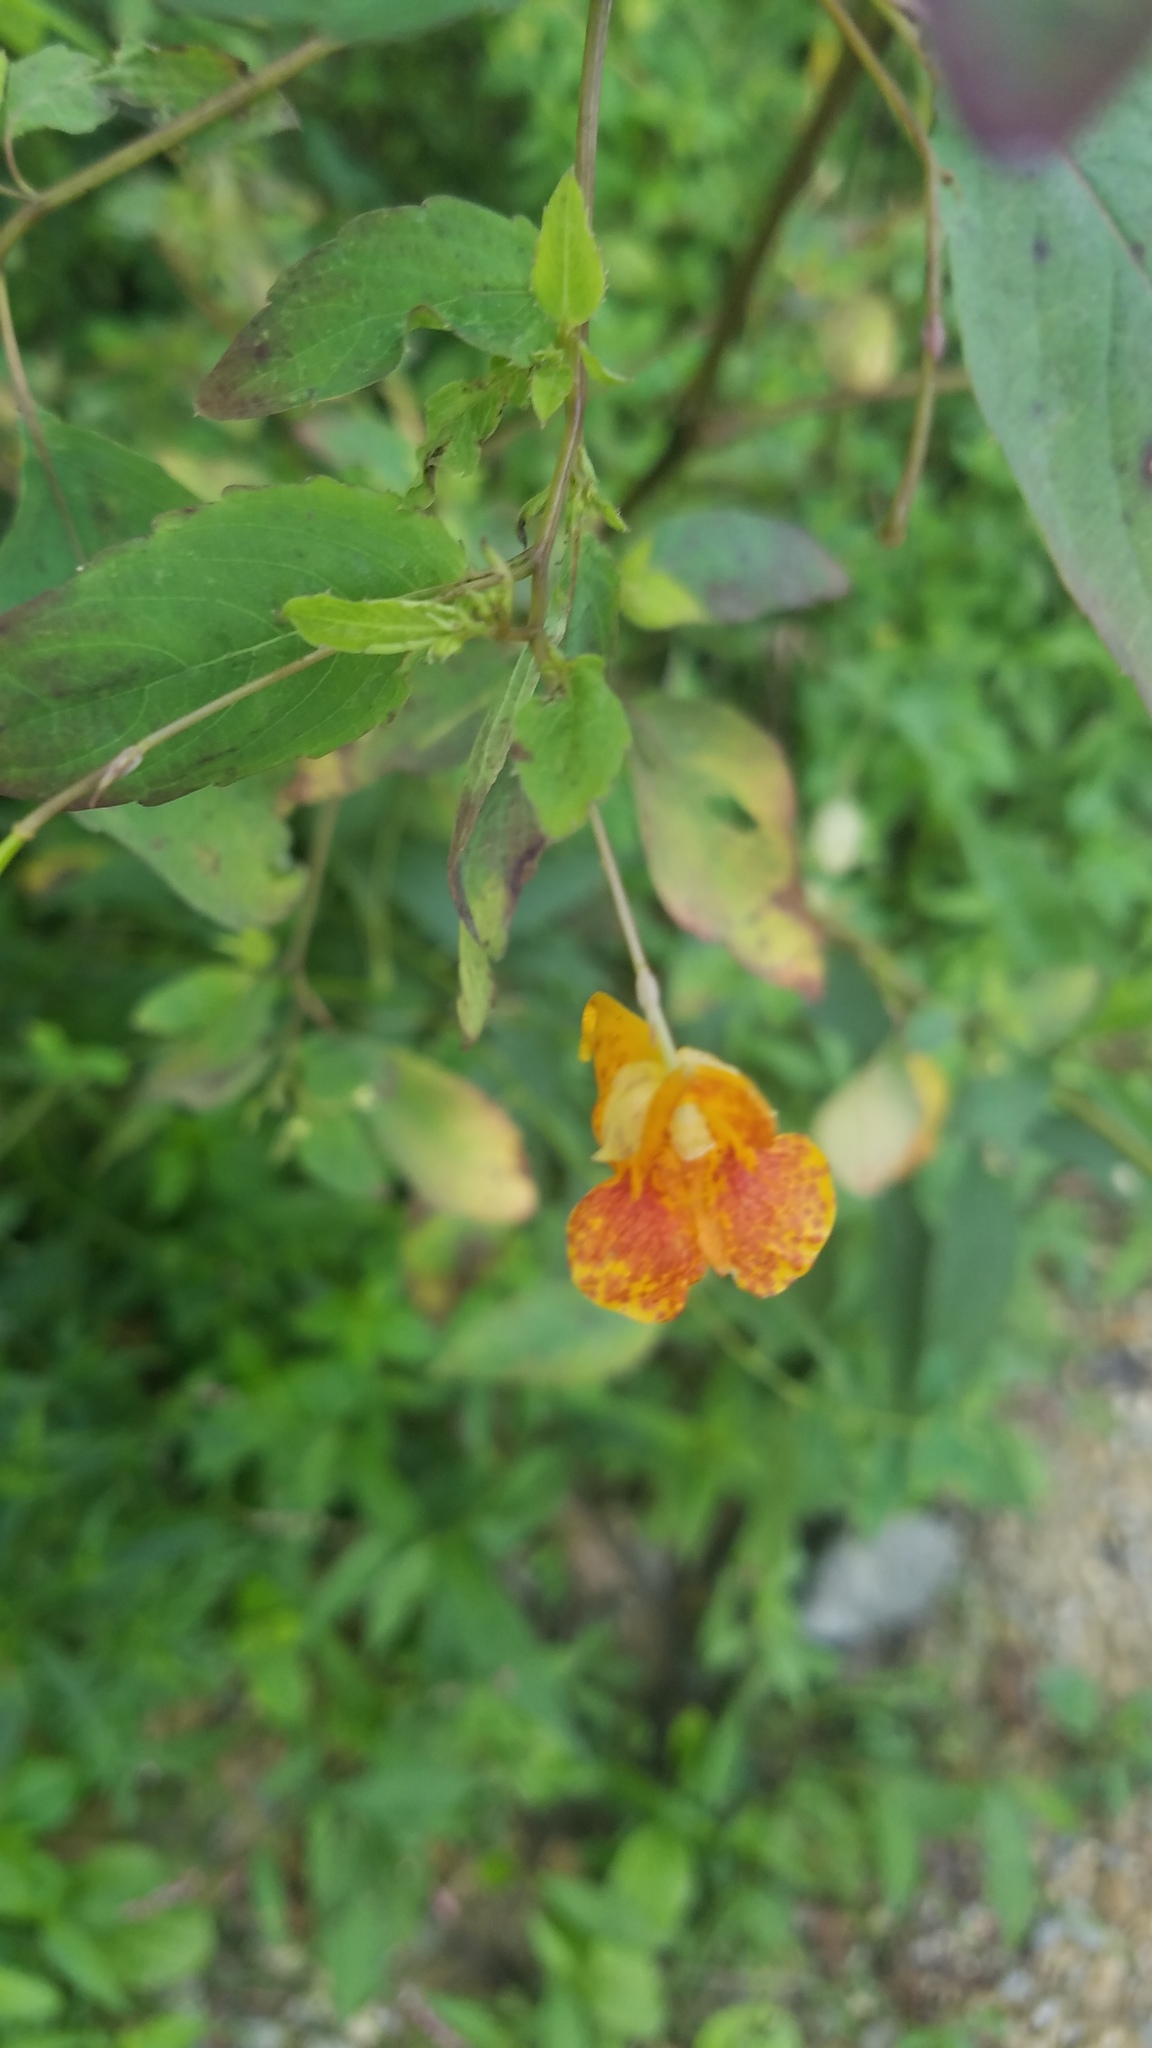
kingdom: Plantae
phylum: Tracheophyta
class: Magnoliopsida
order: Ericales
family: Balsaminaceae
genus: Impatiens
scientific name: Impatiens capensis
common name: Orange balsam
